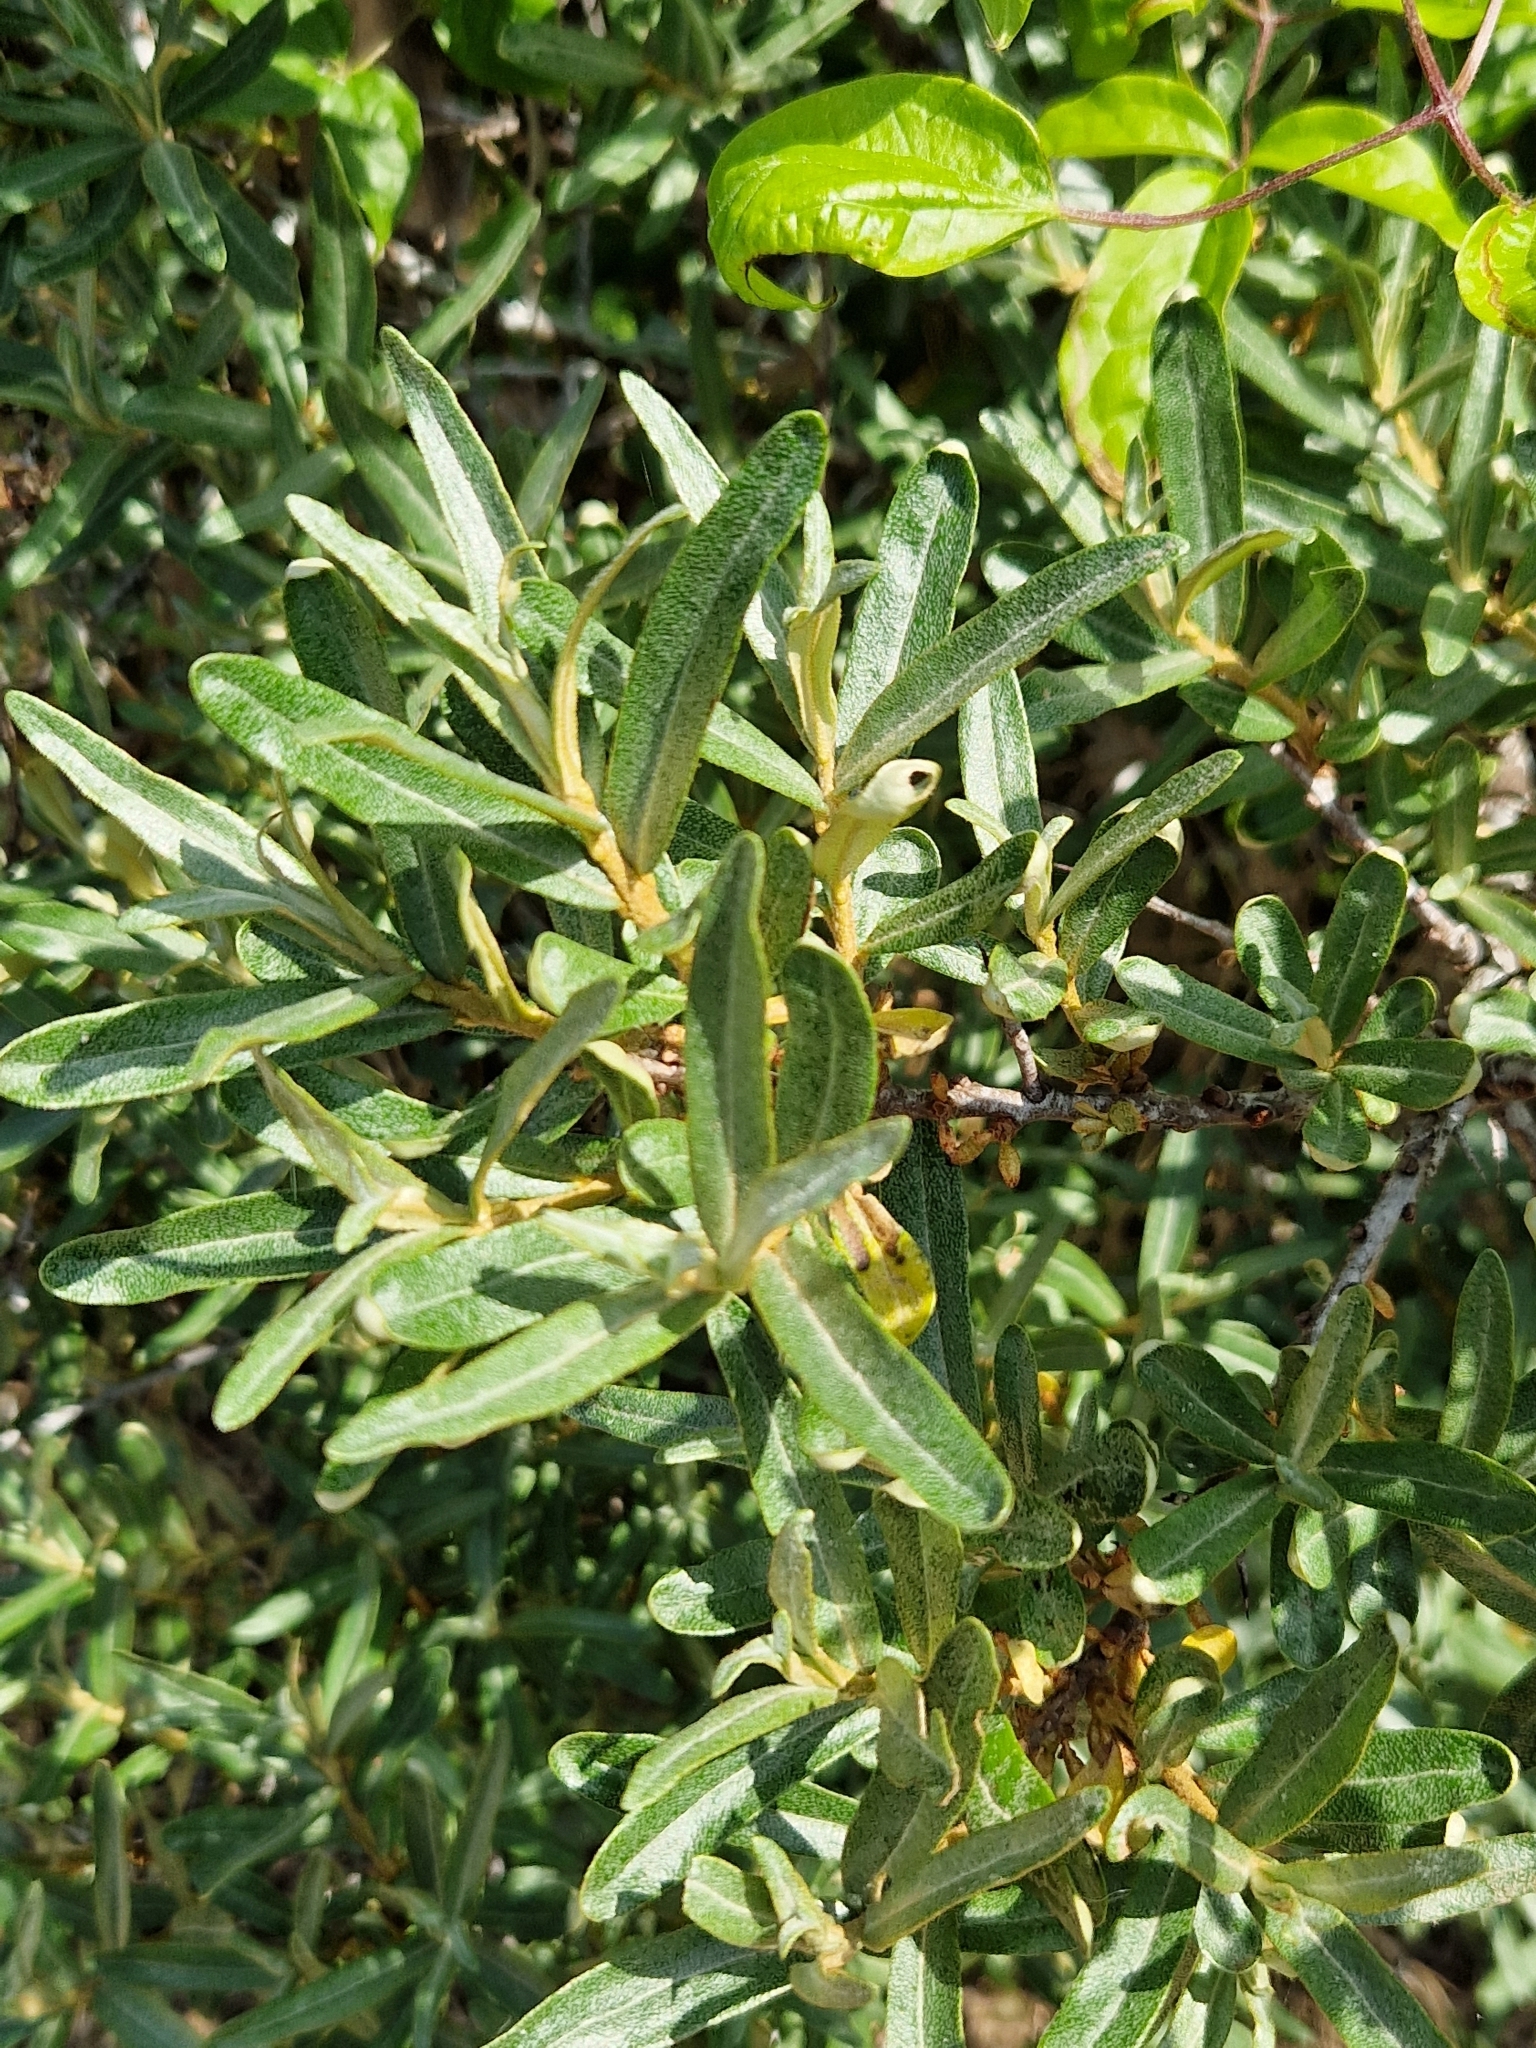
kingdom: Plantae
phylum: Tracheophyta
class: Magnoliopsida
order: Rosales
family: Elaeagnaceae
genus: Hippophae
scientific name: Hippophae rhamnoides
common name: Sea-buckthorn
